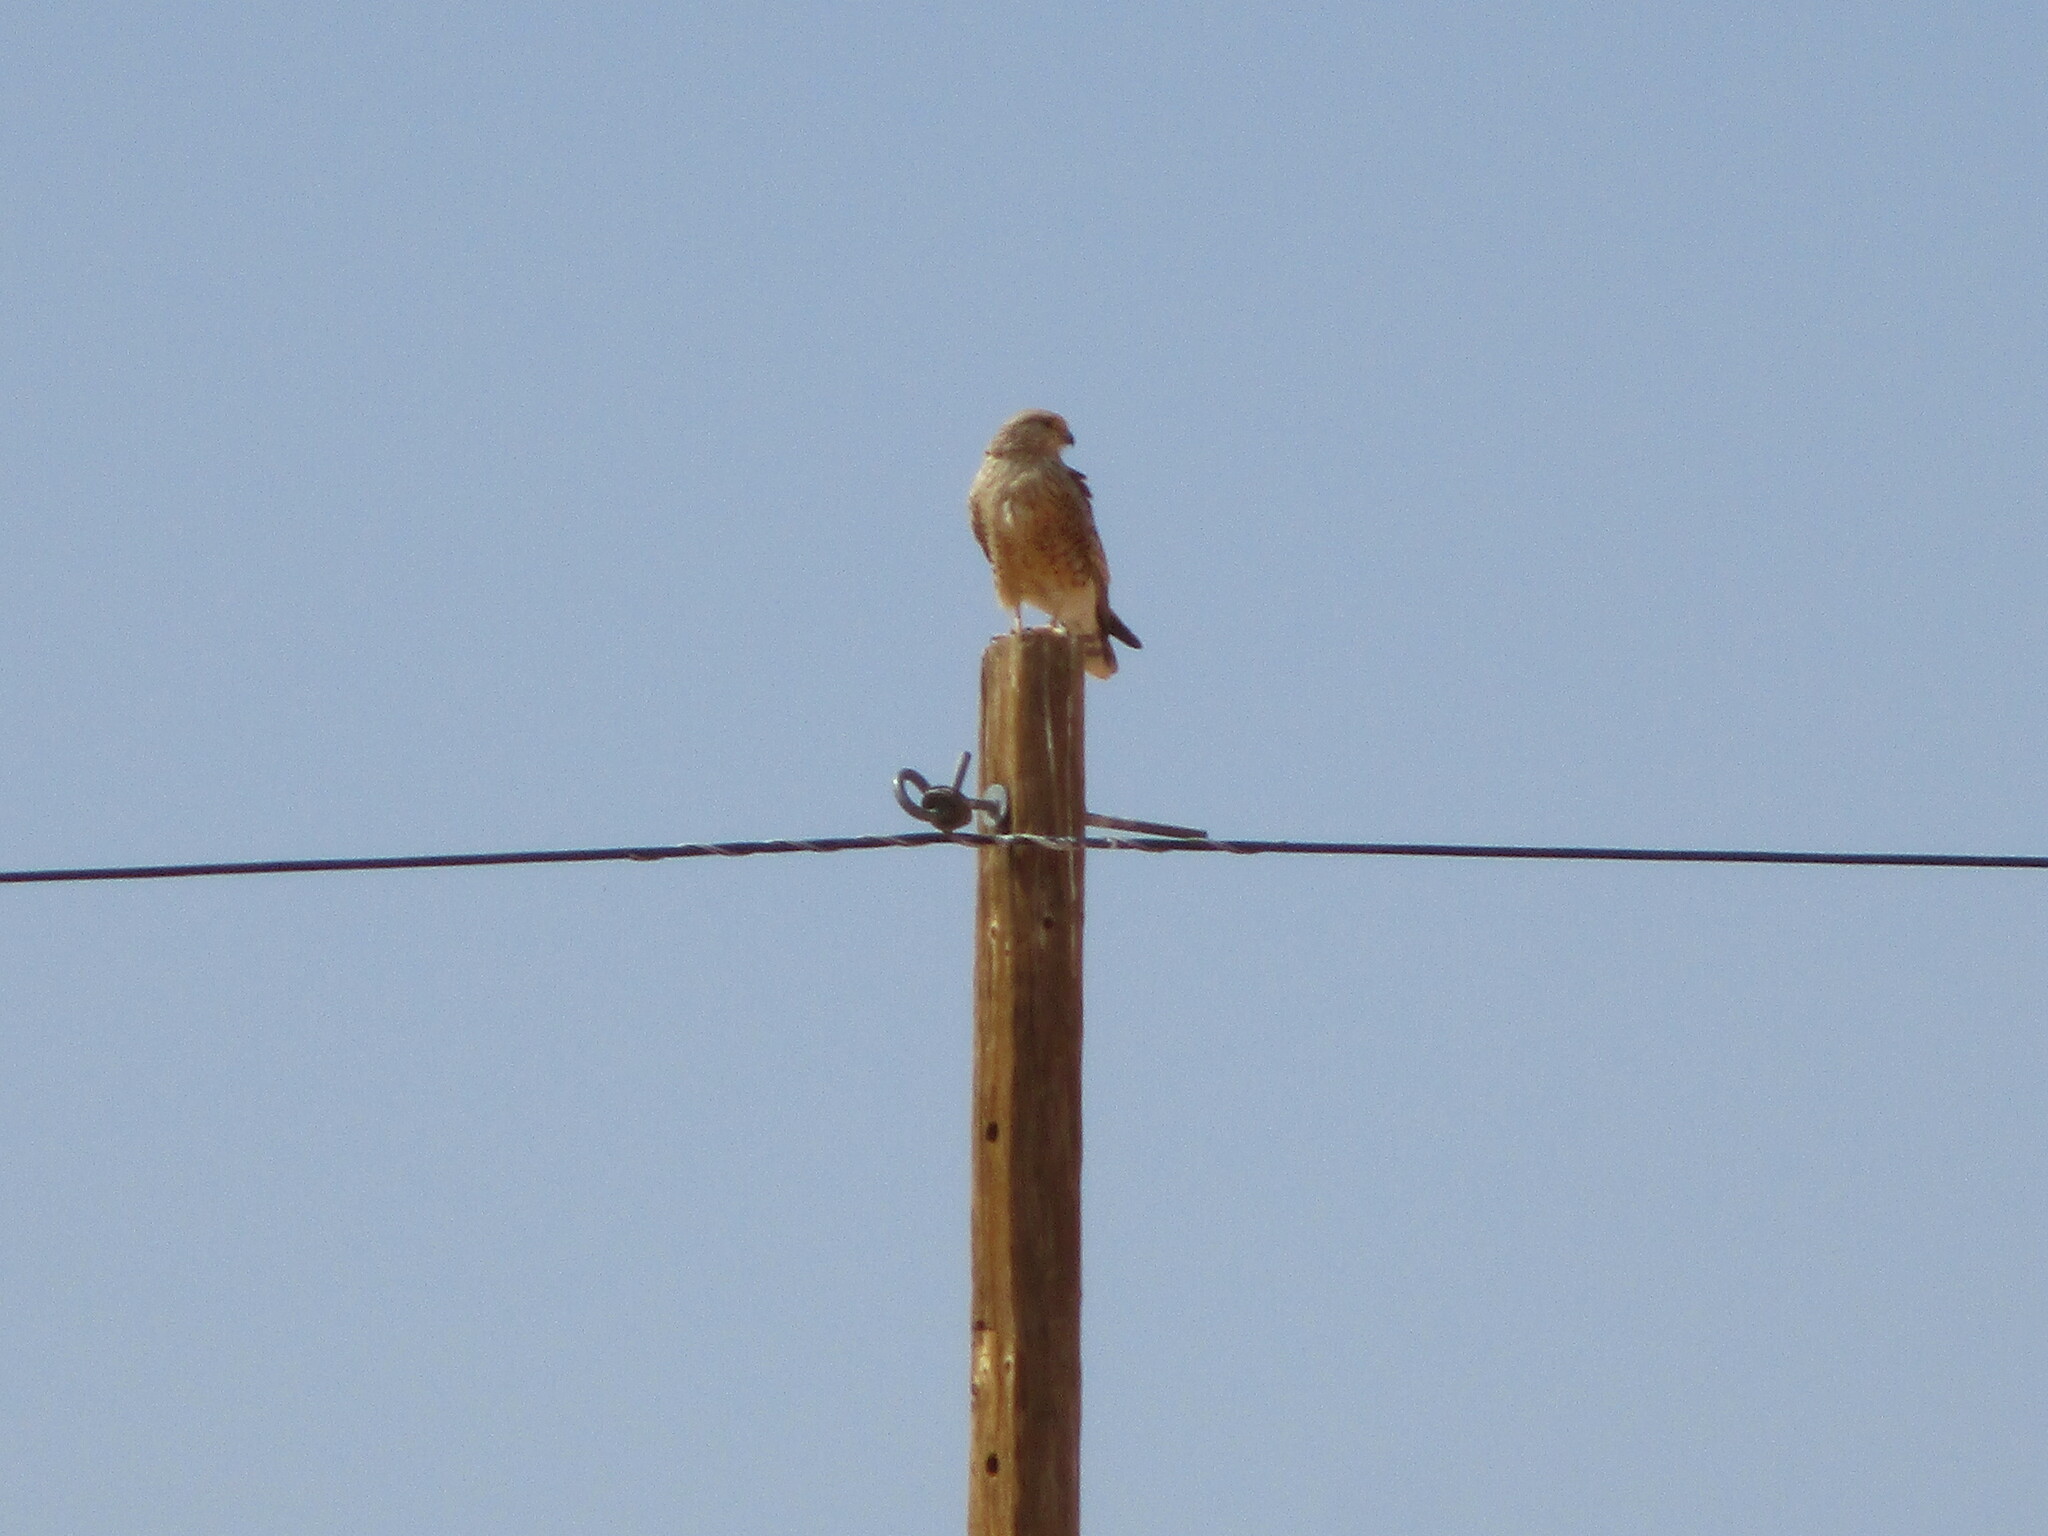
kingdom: Animalia
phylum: Chordata
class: Aves
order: Falconiformes
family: Falconidae
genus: Falco
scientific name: Falco rupicoloides
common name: Greater kestrel
